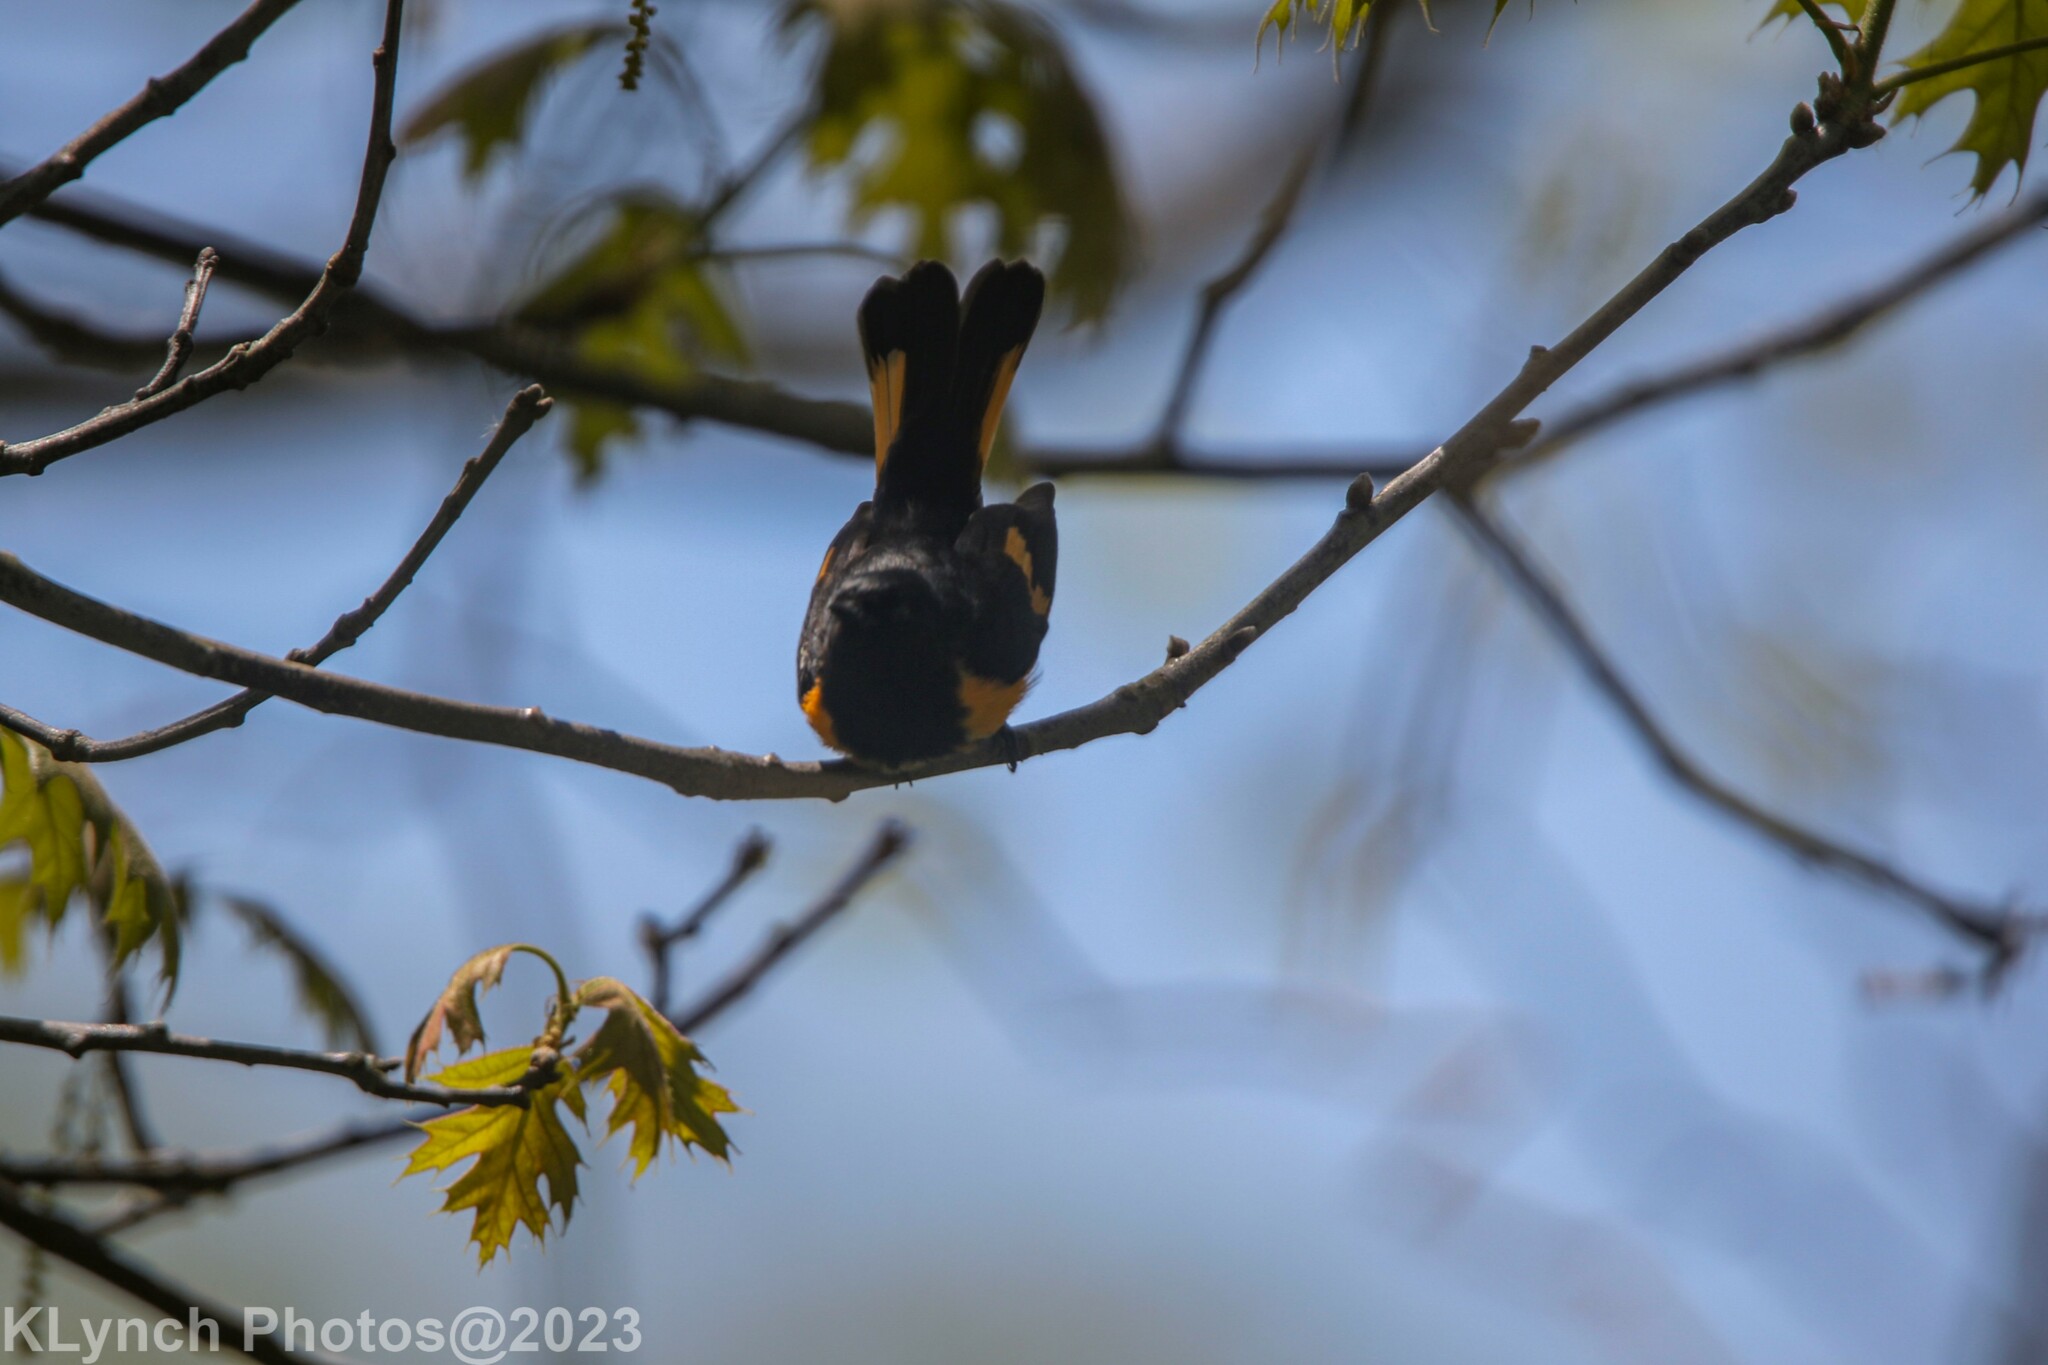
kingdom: Animalia
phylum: Chordata
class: Aves
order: Passeriformes
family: Parulidae
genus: Setophaga
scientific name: Setophaga ruticilla
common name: American redstart
